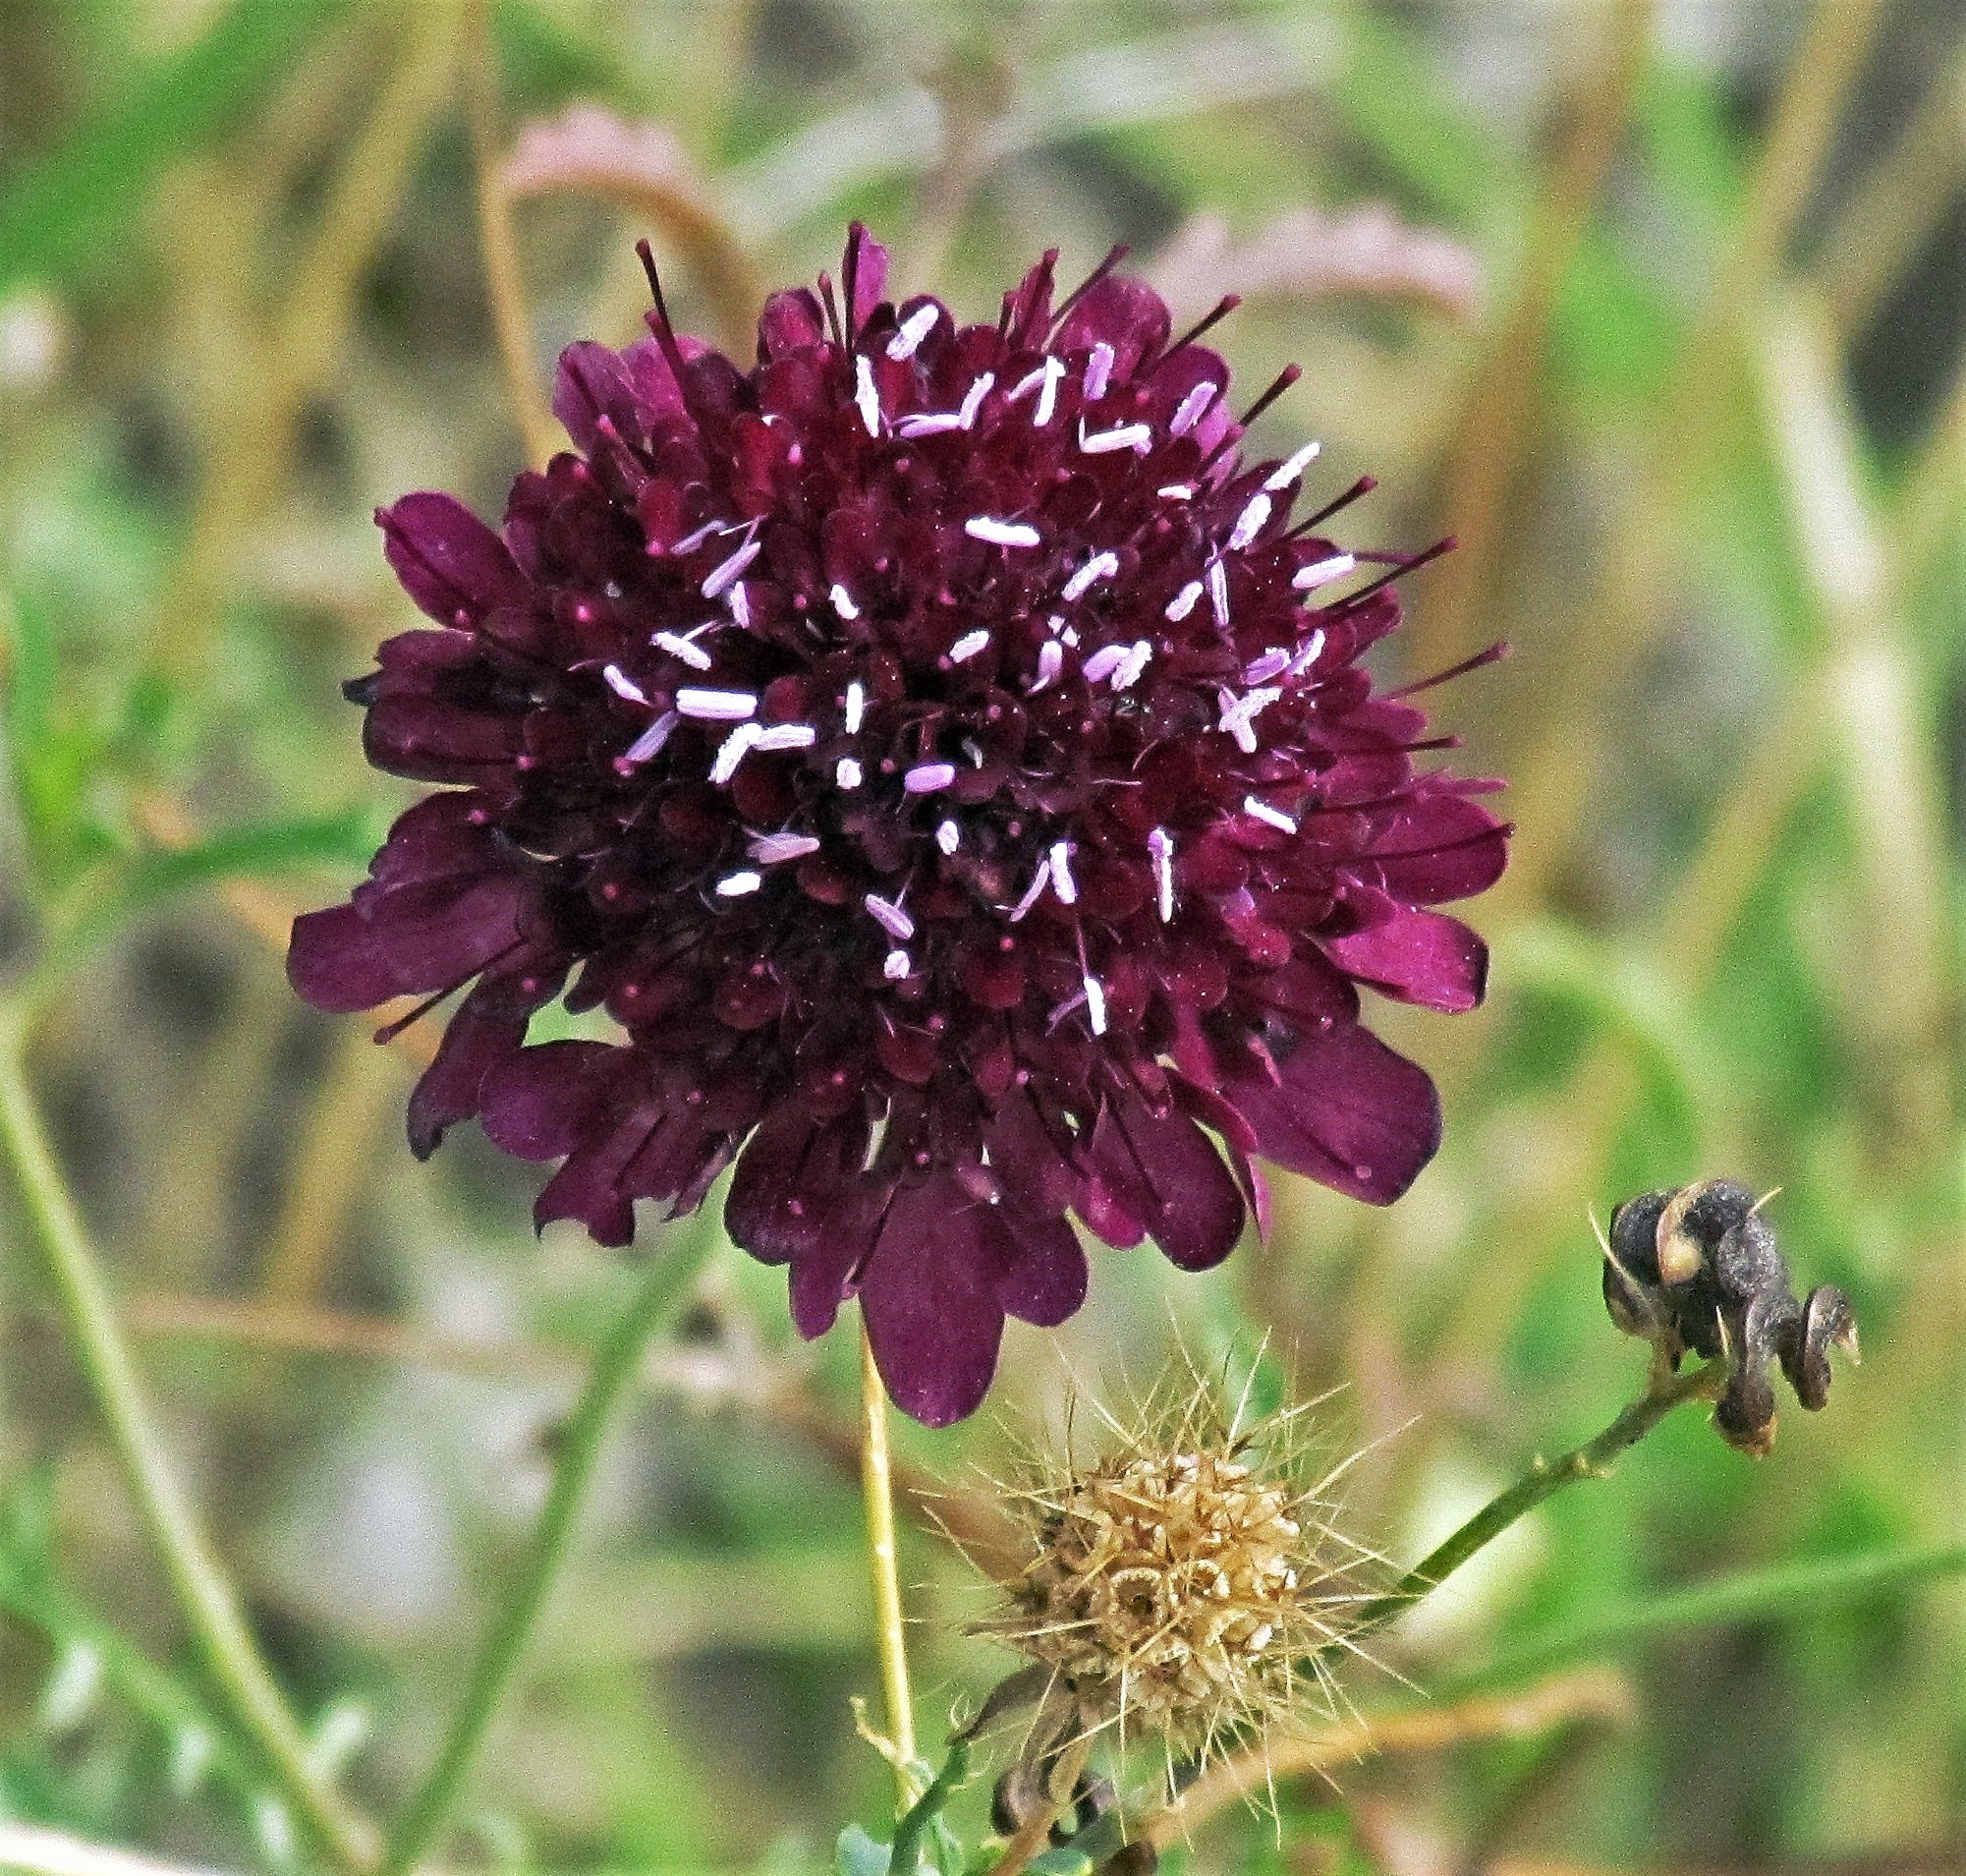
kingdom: Plantae
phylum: Tracheophyta
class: Magnoliopsida
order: Dipsacales
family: Caprifoliaceae
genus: Sixalix
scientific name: Sixalix atropurpurea
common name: Sweet scabious
